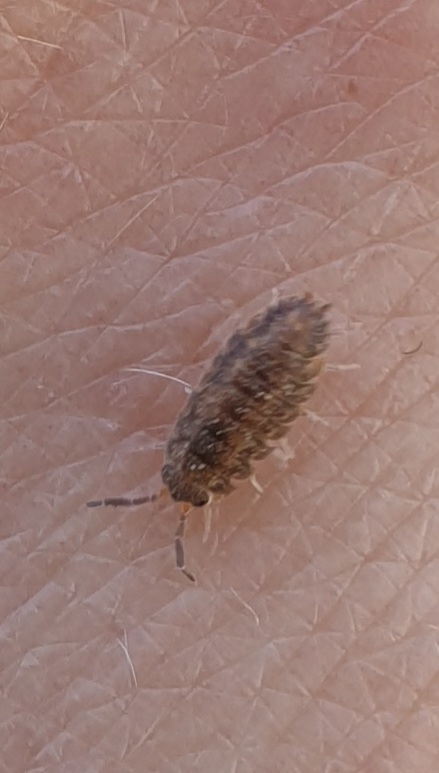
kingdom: Animalia
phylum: Arthropoda
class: Malacostraca
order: Isopoda
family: Porcellionidae
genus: Porcellio
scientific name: Porcellio scaber
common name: Common rough woodlouse
